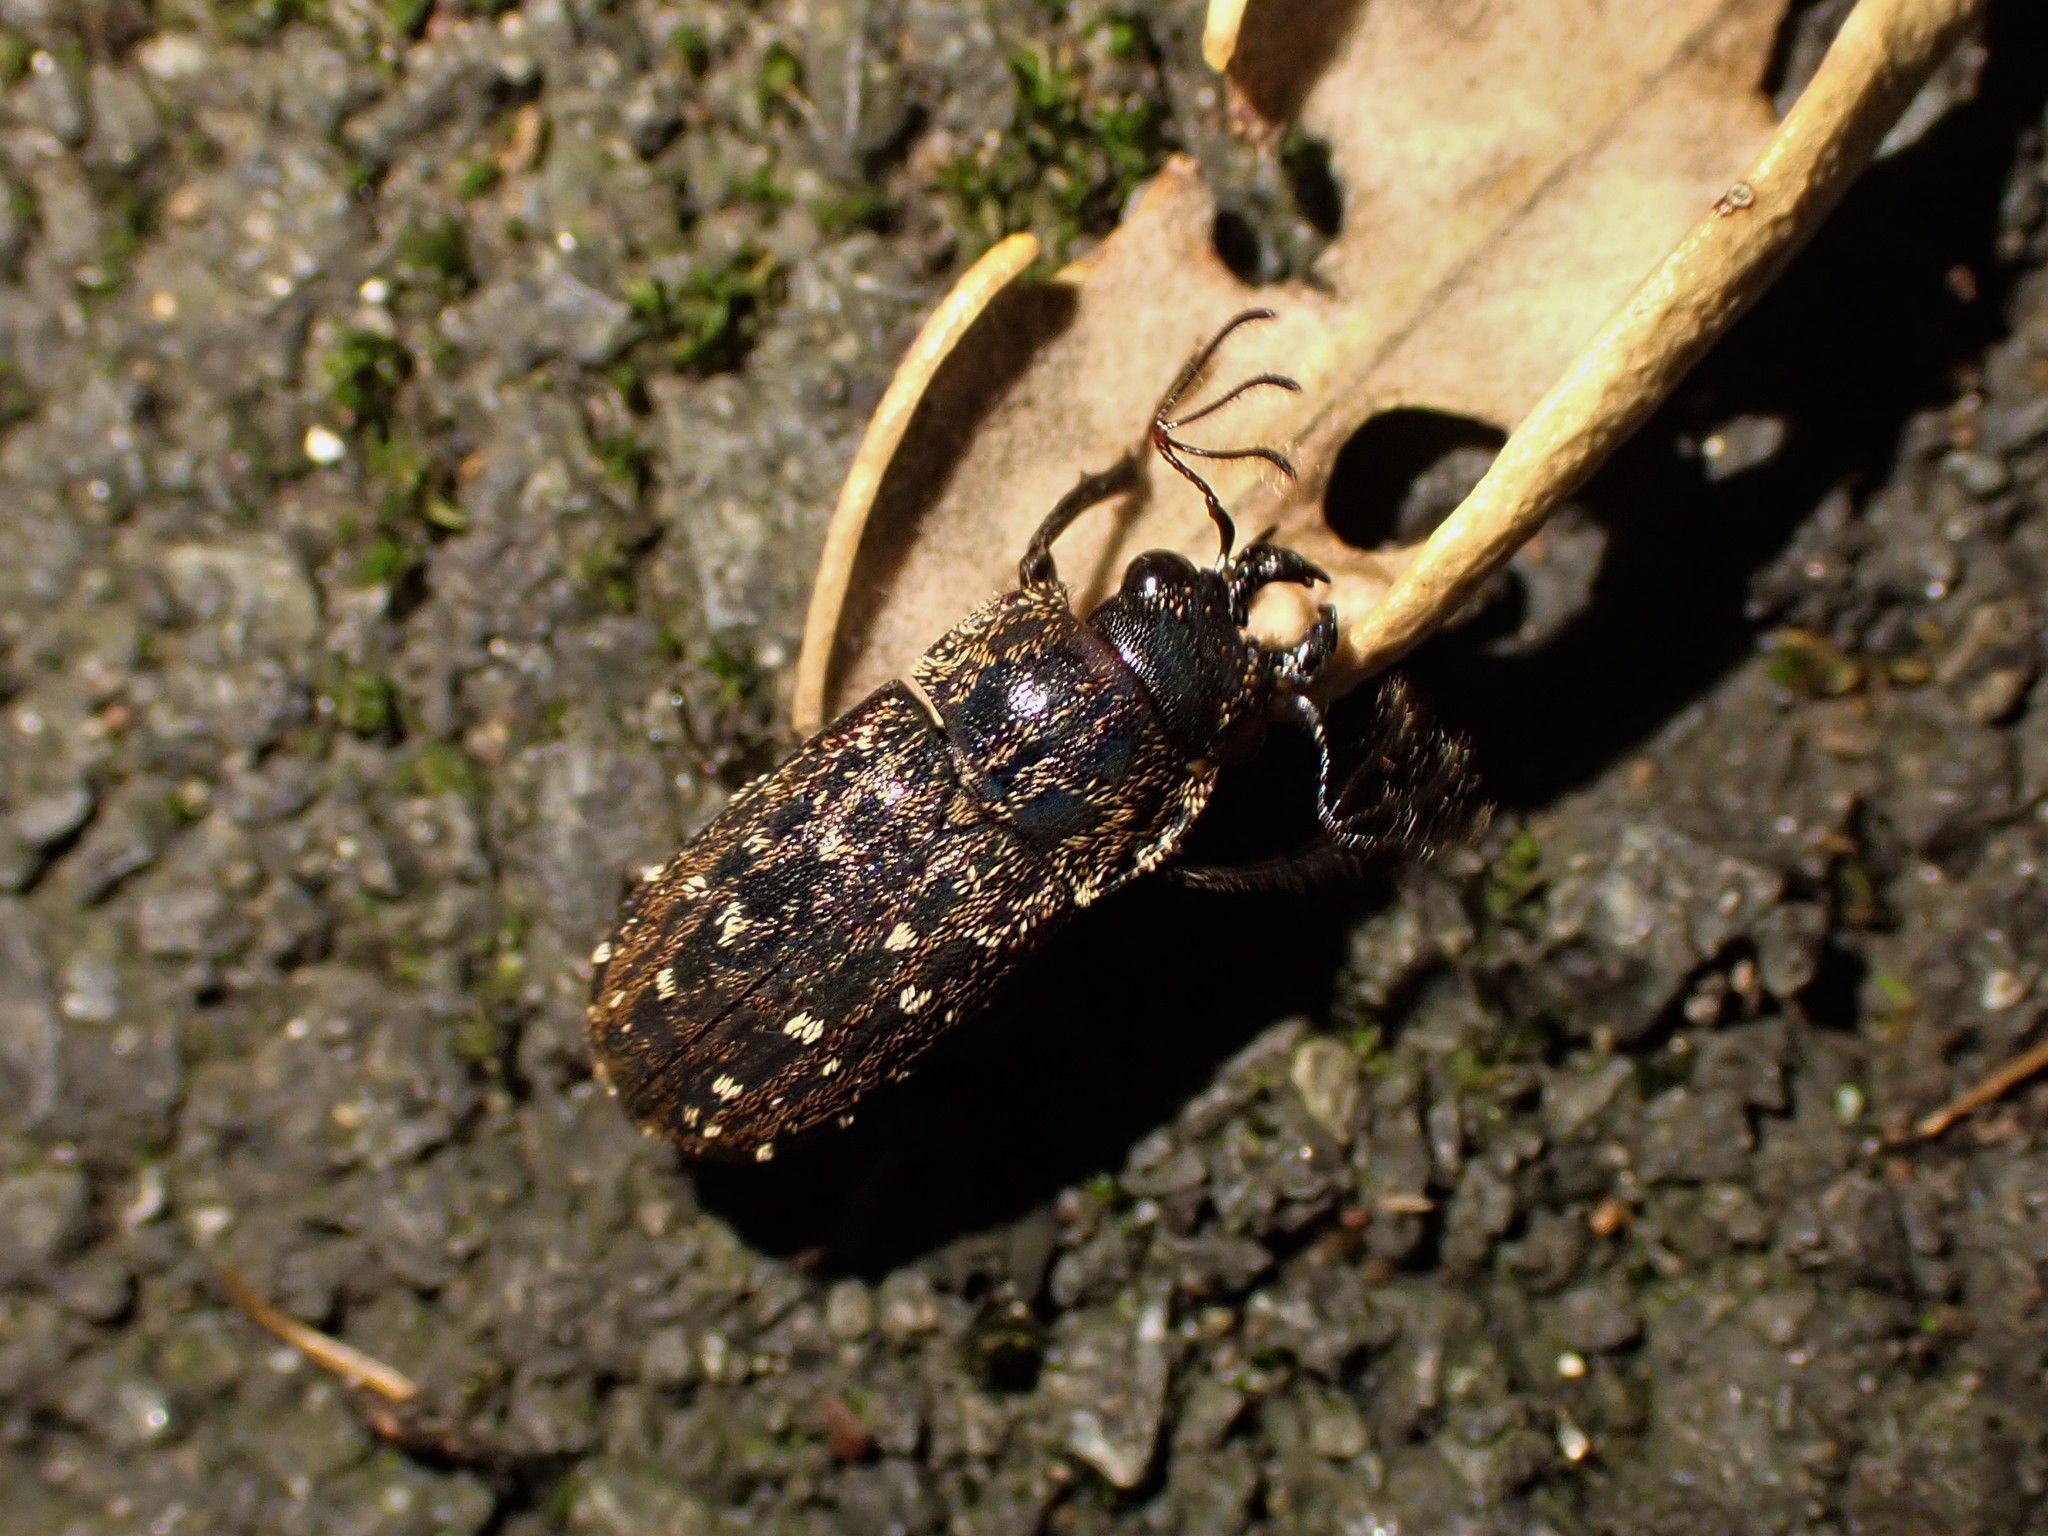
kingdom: Animalia
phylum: Arthropoda
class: Insecta
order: Coleoptera
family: Lucanidae
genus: Mitophyllus
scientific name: Mitophyllus arcuatus
